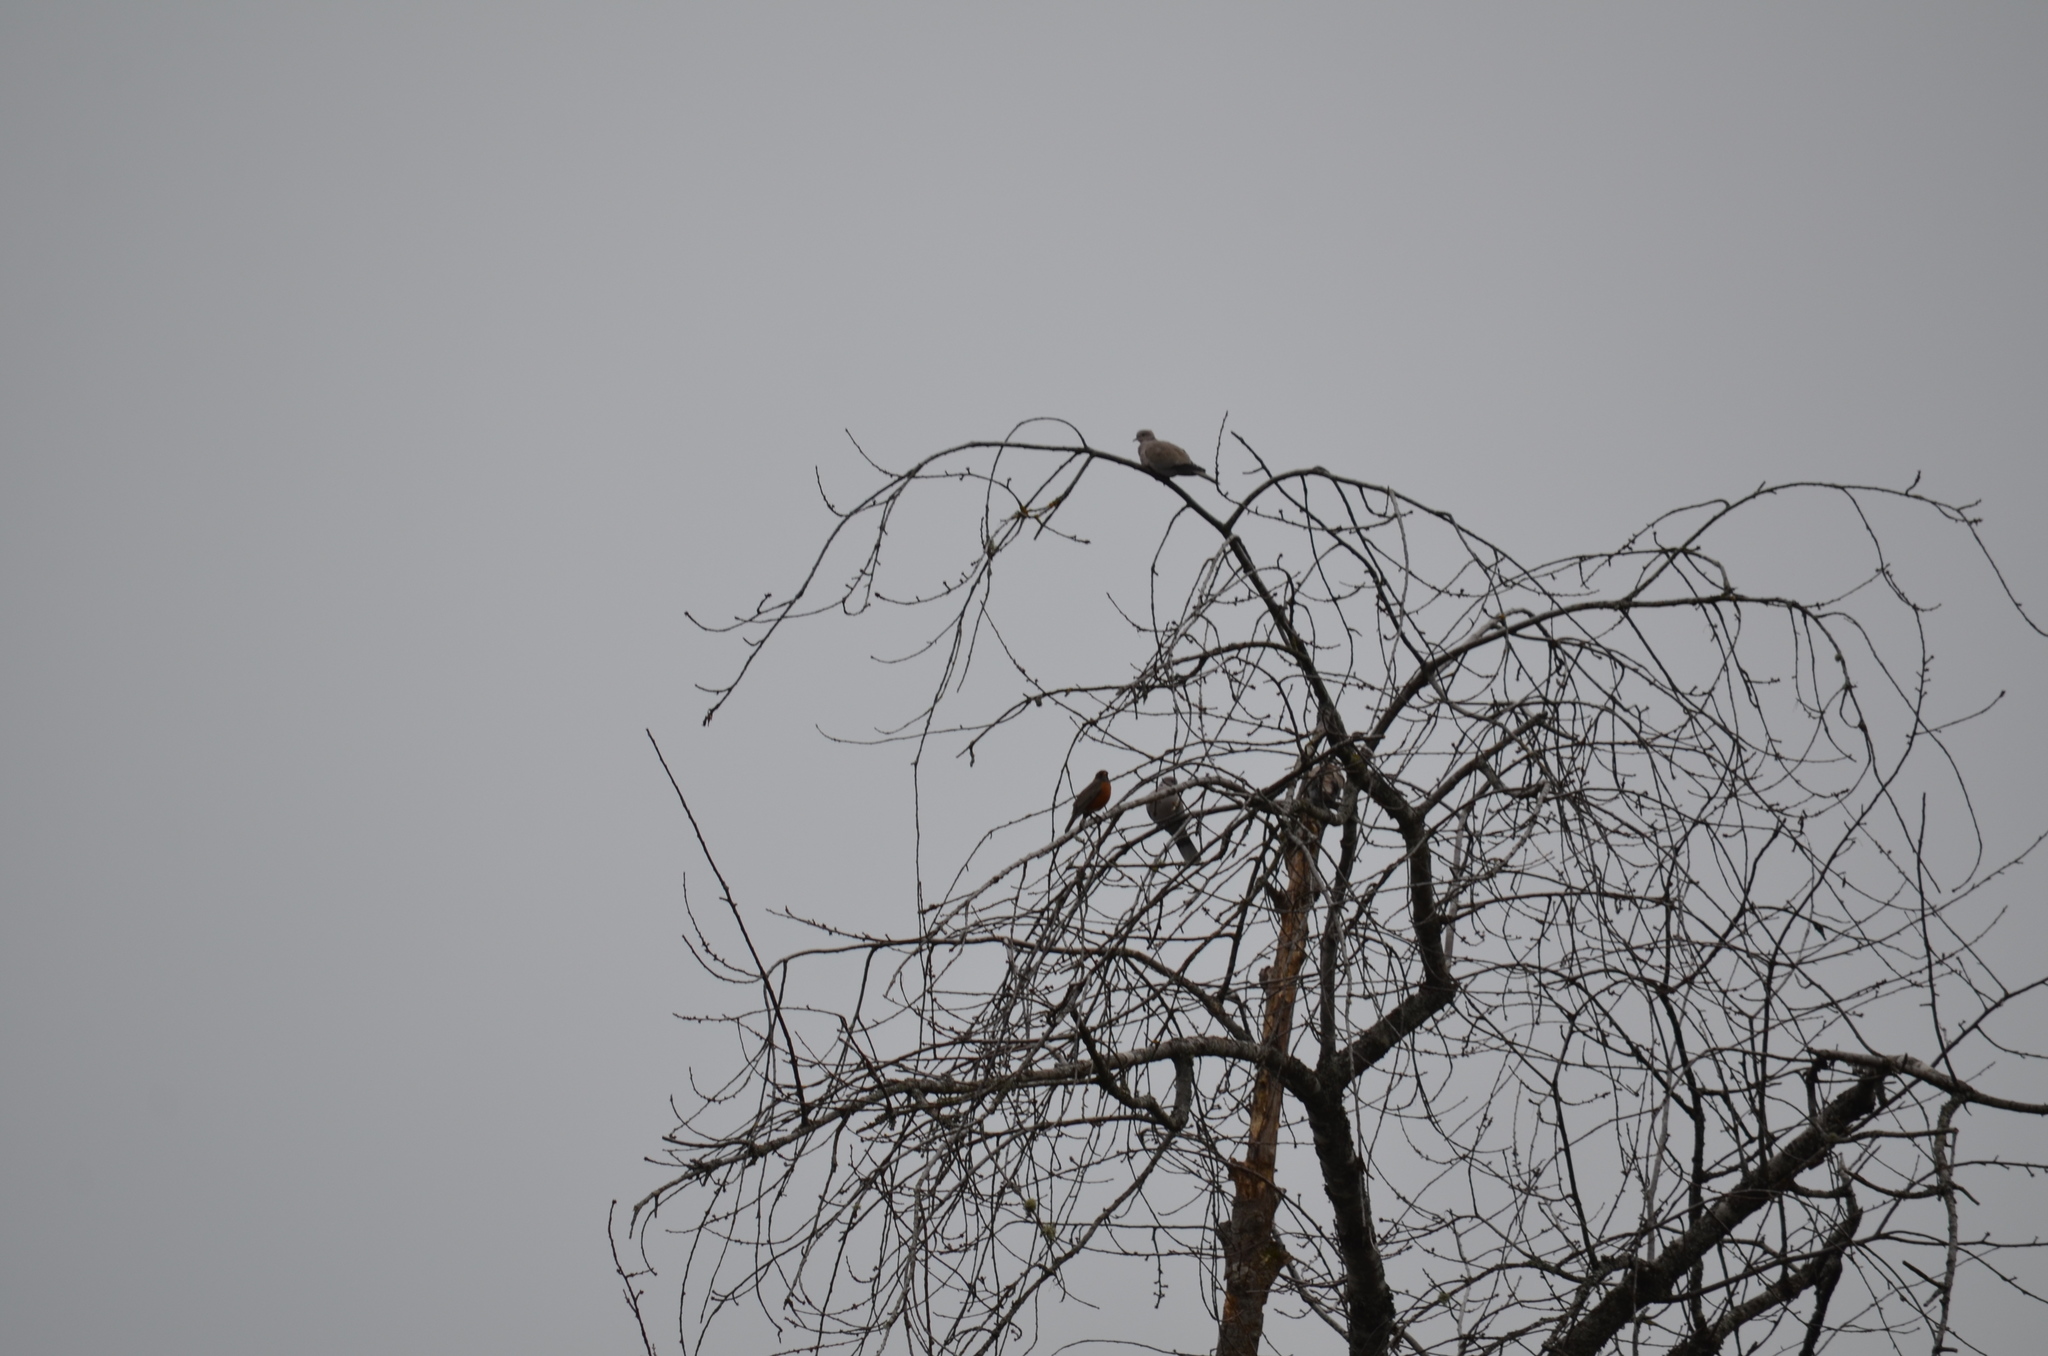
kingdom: Animalia
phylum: Chordata
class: Aves
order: Columbiformes
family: Columbidae
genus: Streptopelia
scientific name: Streptopelia decaocto
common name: Eurasian collared dove
